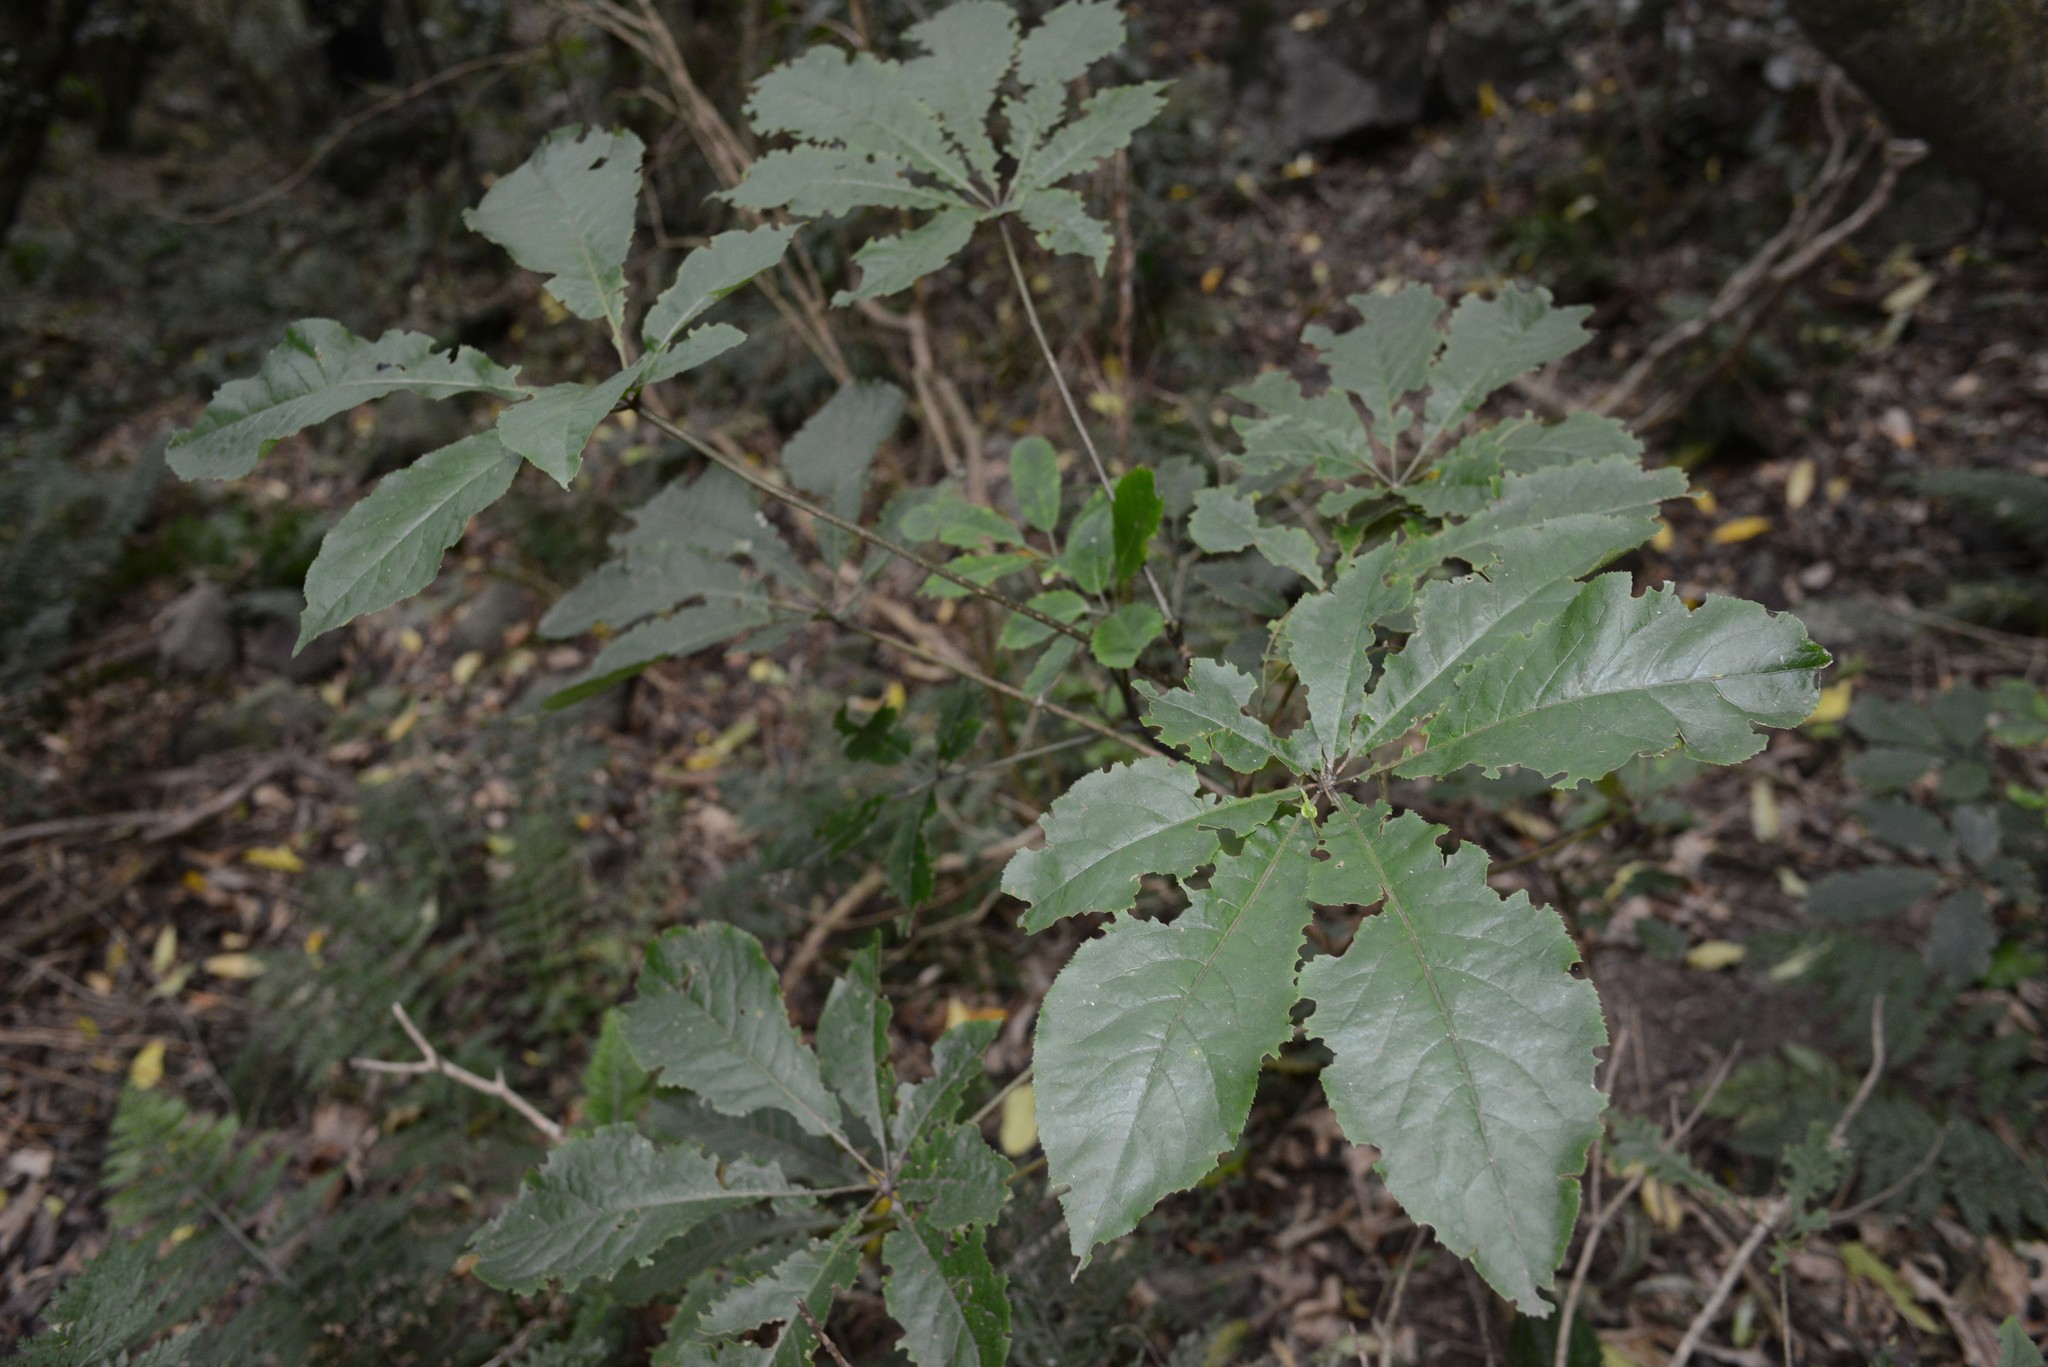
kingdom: Plantae
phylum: Tracheophyta
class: Magnoliopsida
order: Apiales
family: Araliaceae
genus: Schefflera
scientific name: Schefflera digitata
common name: Pate
